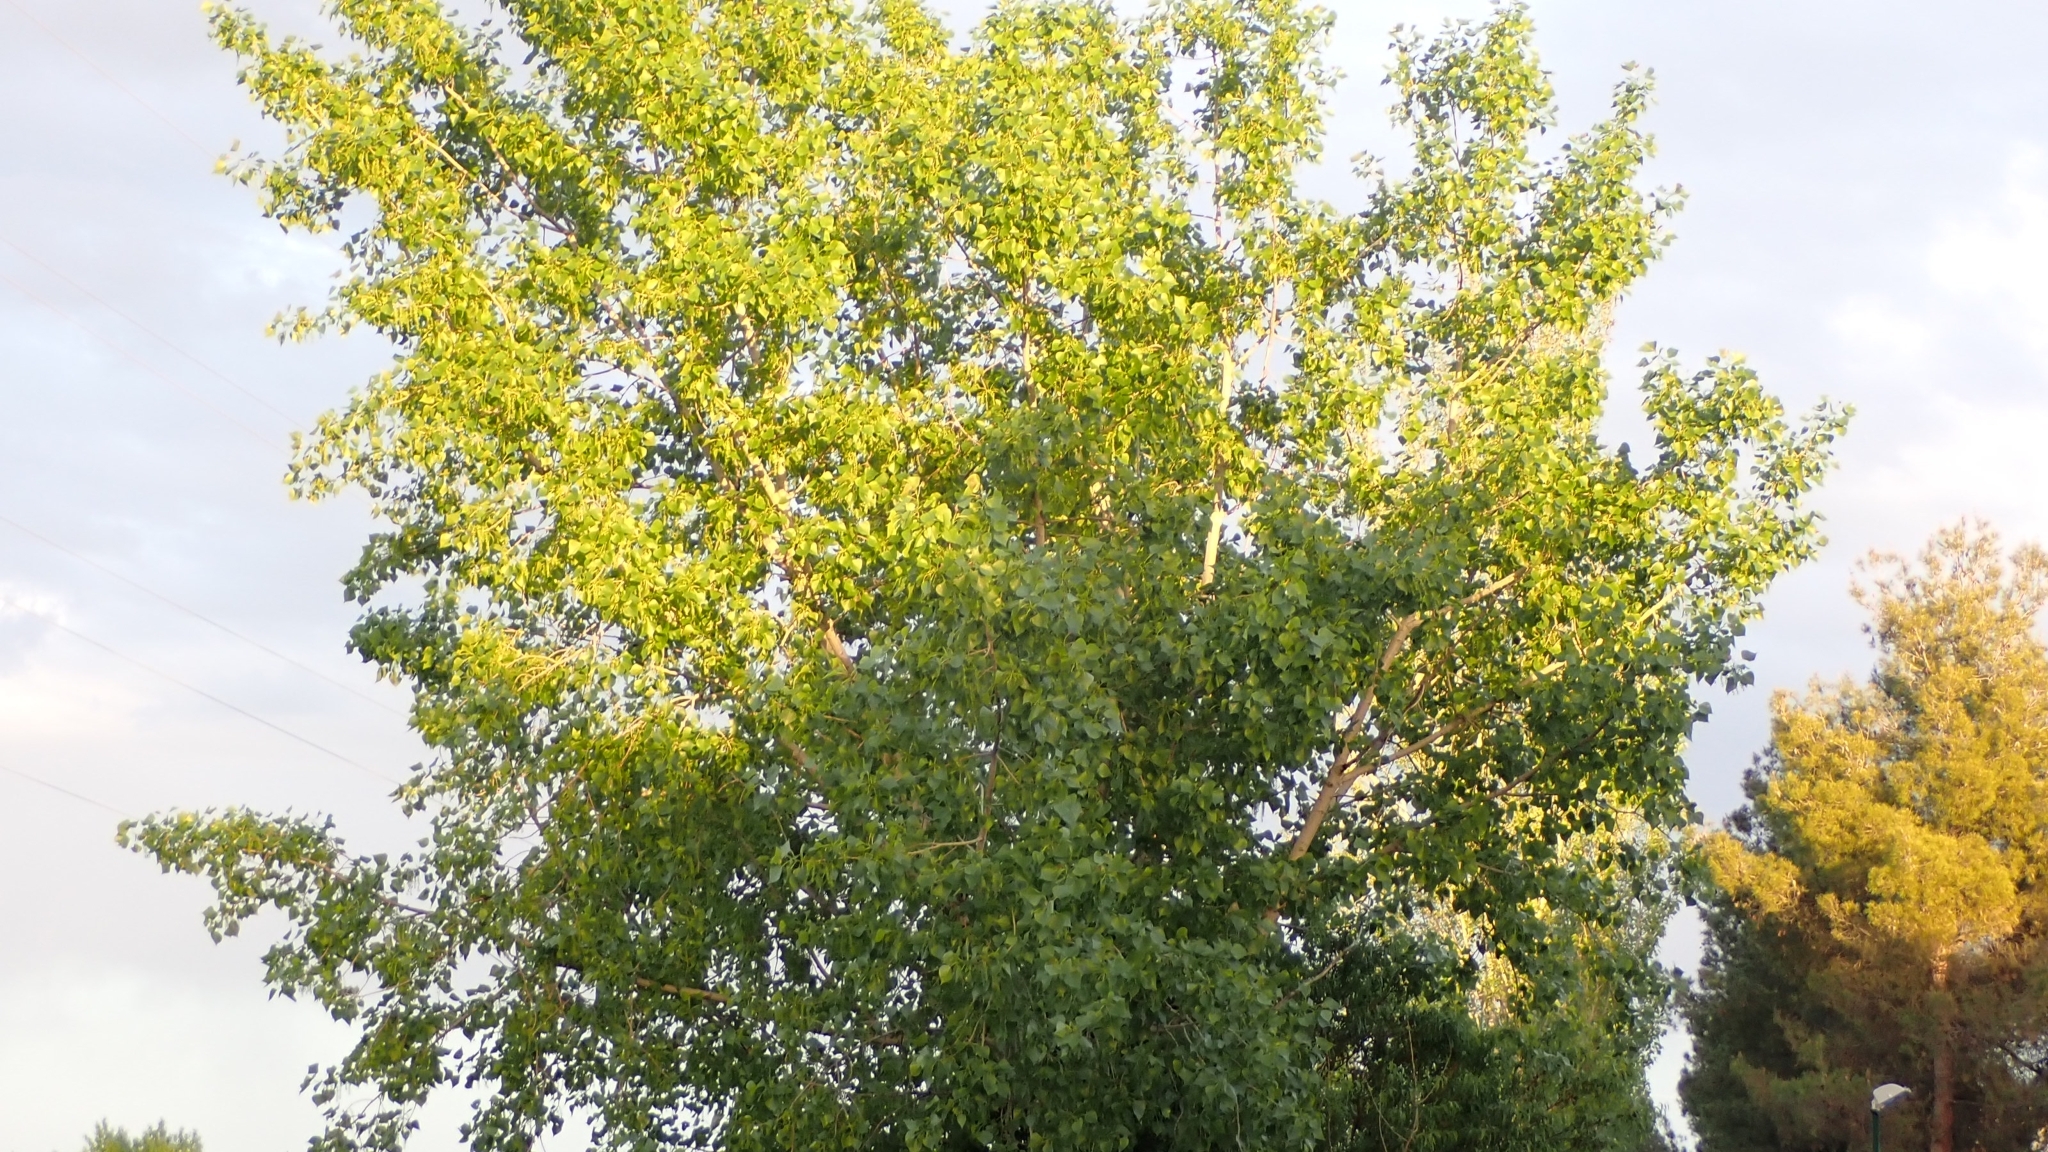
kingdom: Plantae
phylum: Tracheophyta
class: Magnoliopsida
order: Malpighiales
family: Salicaceae
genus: Populus
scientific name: Populus nigra
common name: Black poplar
